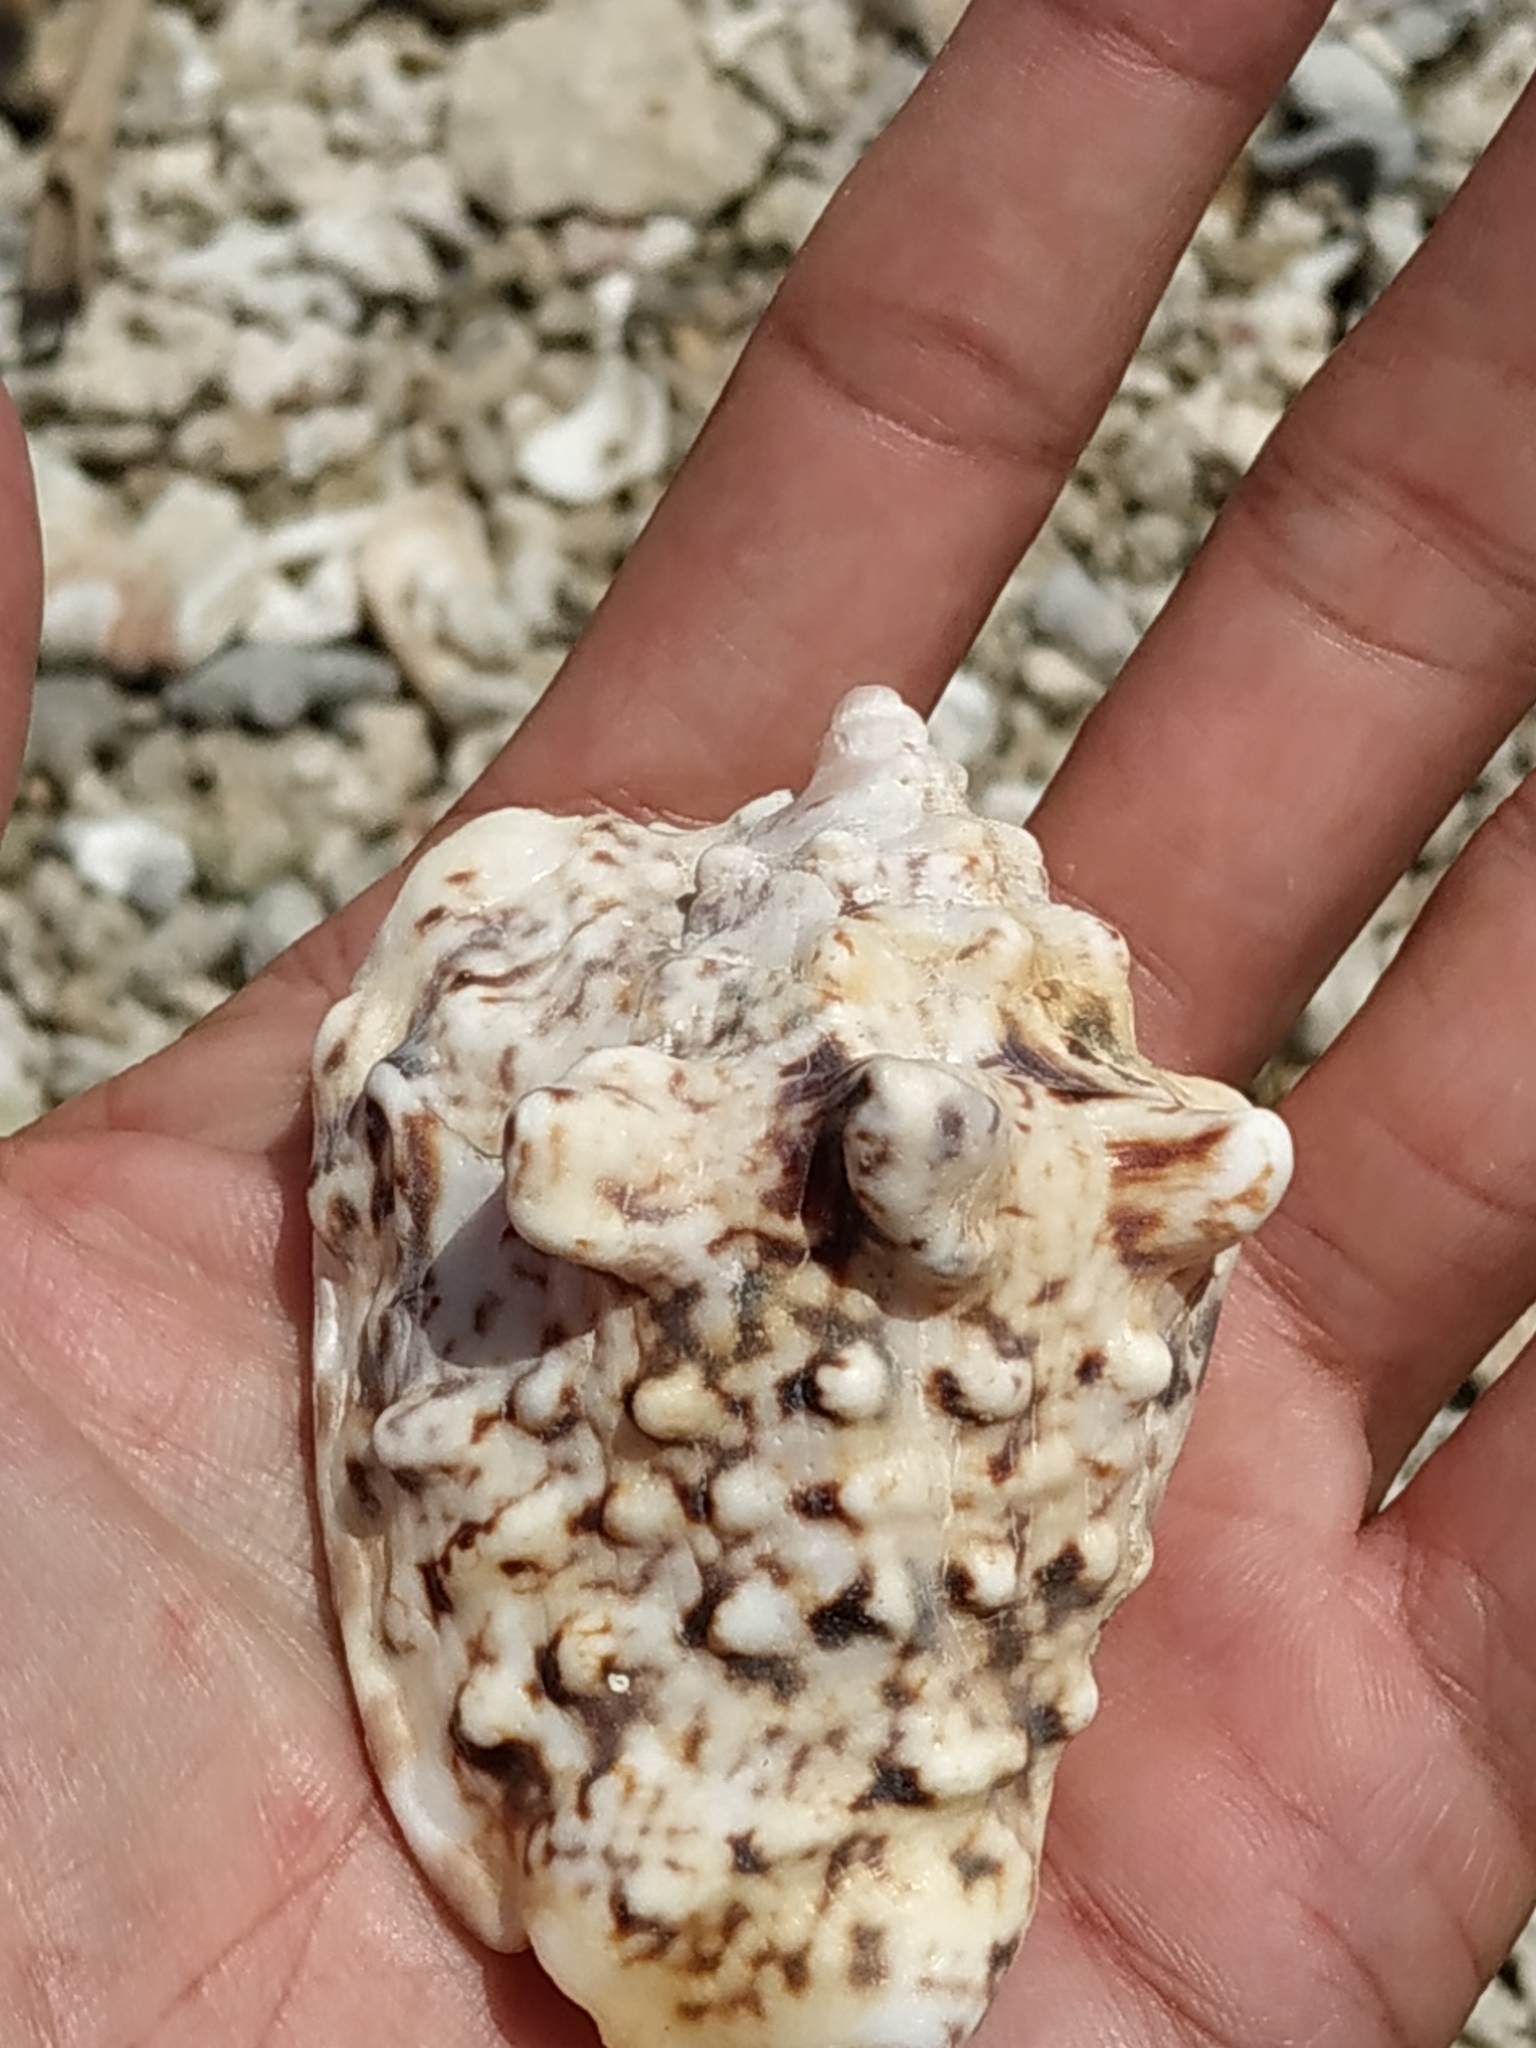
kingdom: Animalia
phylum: Mollusca
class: Gastropoda
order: Littorinimorpha
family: Strombidae
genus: Lentigo
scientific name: Lentigo lentiginosus
